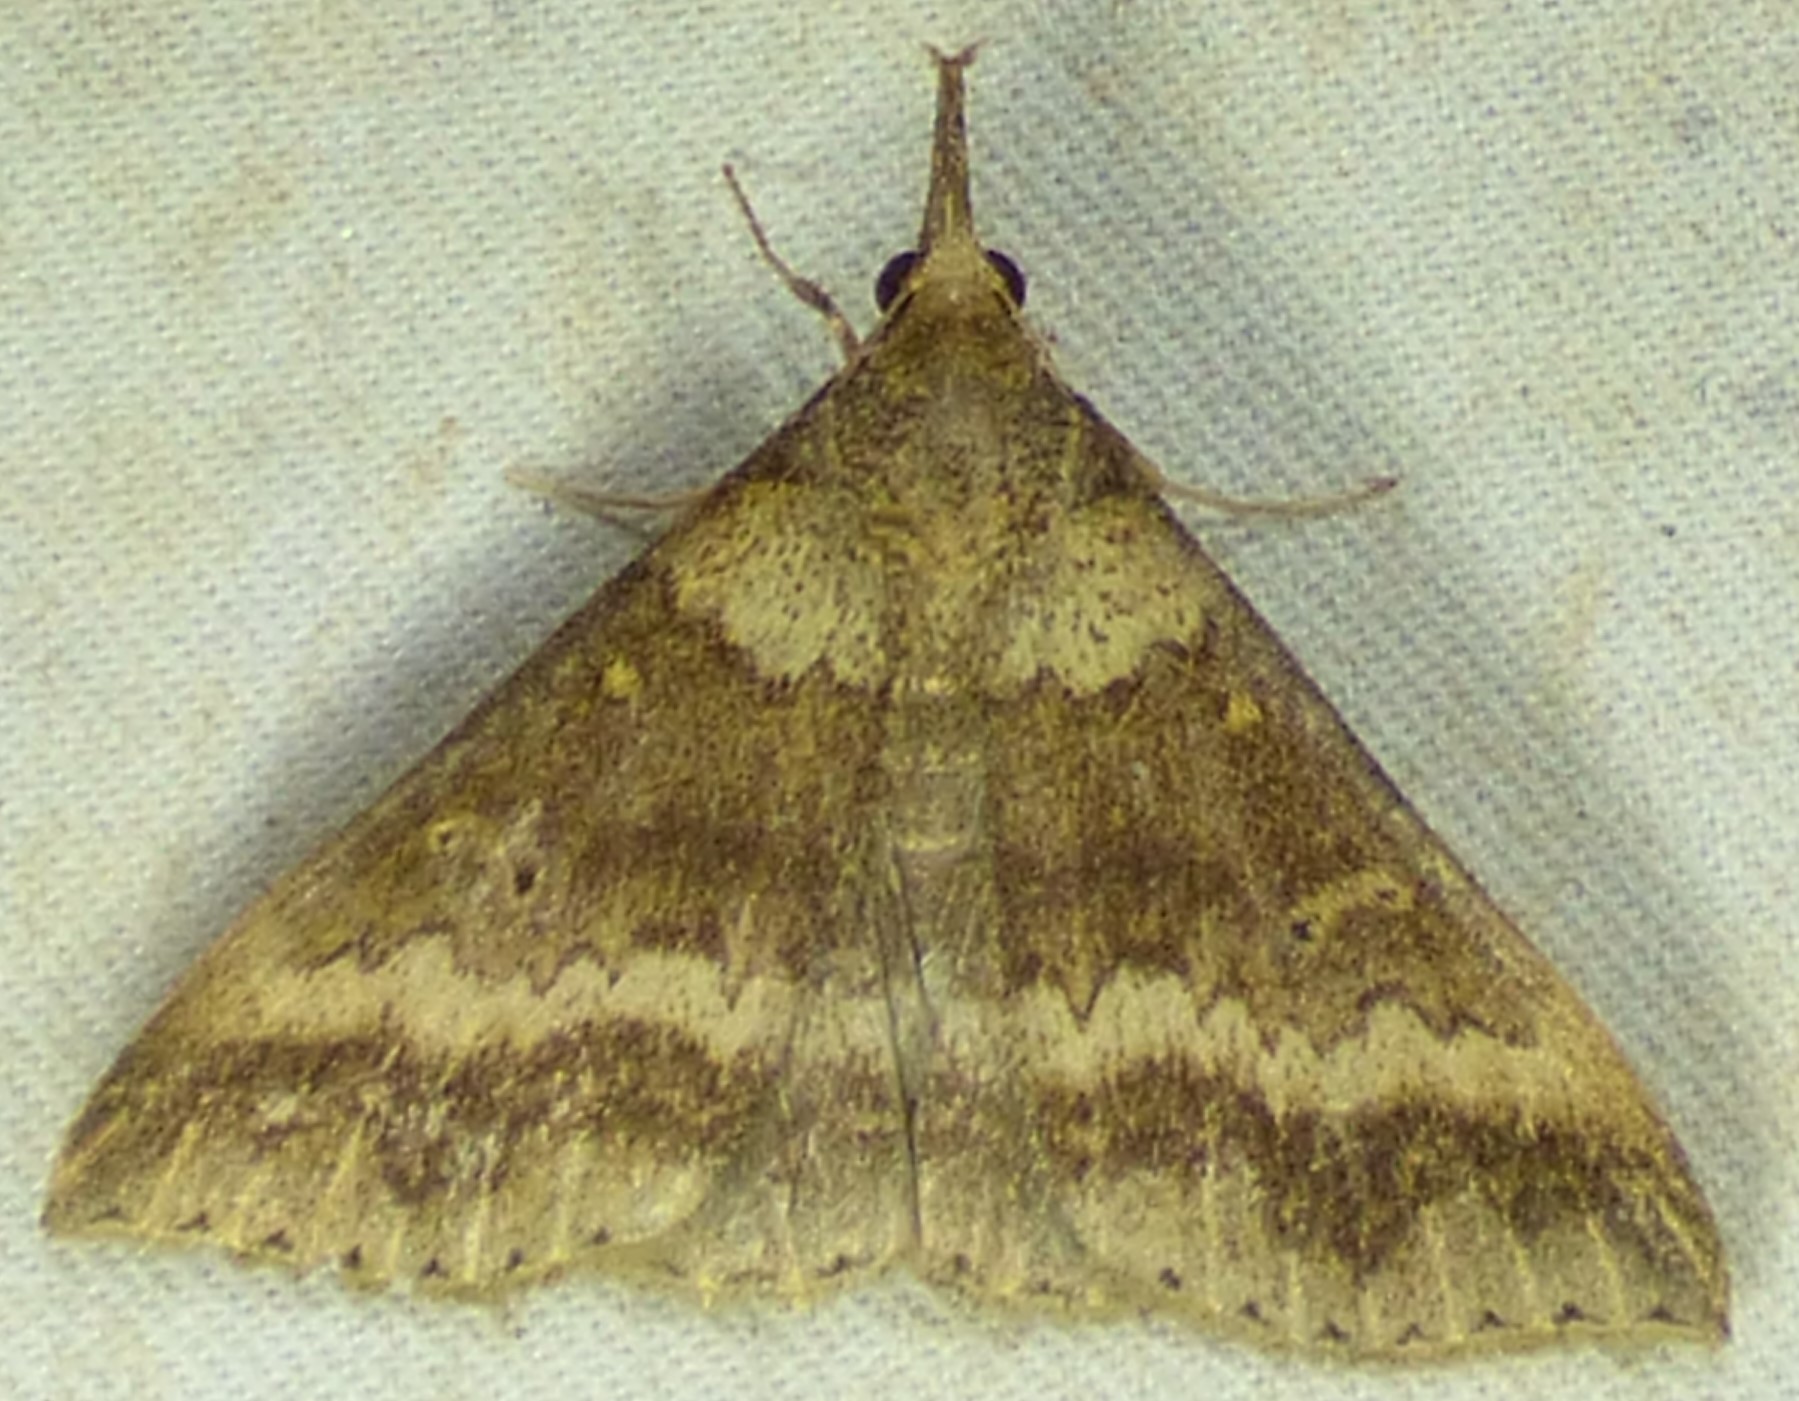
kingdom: Animalia
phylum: Arthropoda
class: Insecta
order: Lepidoptera
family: Erebidae
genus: Renia
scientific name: Renia discoloralis
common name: Discolored renia moth
